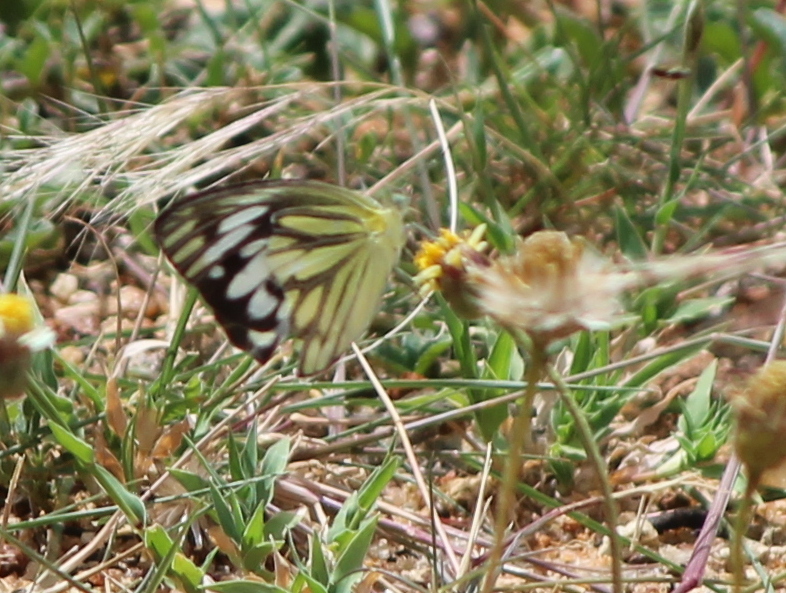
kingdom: Animalia
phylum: Arthropoda
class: Insecta
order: Lepidoptera
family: Pieridae
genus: Cepora
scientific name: Cepora nerissa
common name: Common gull
